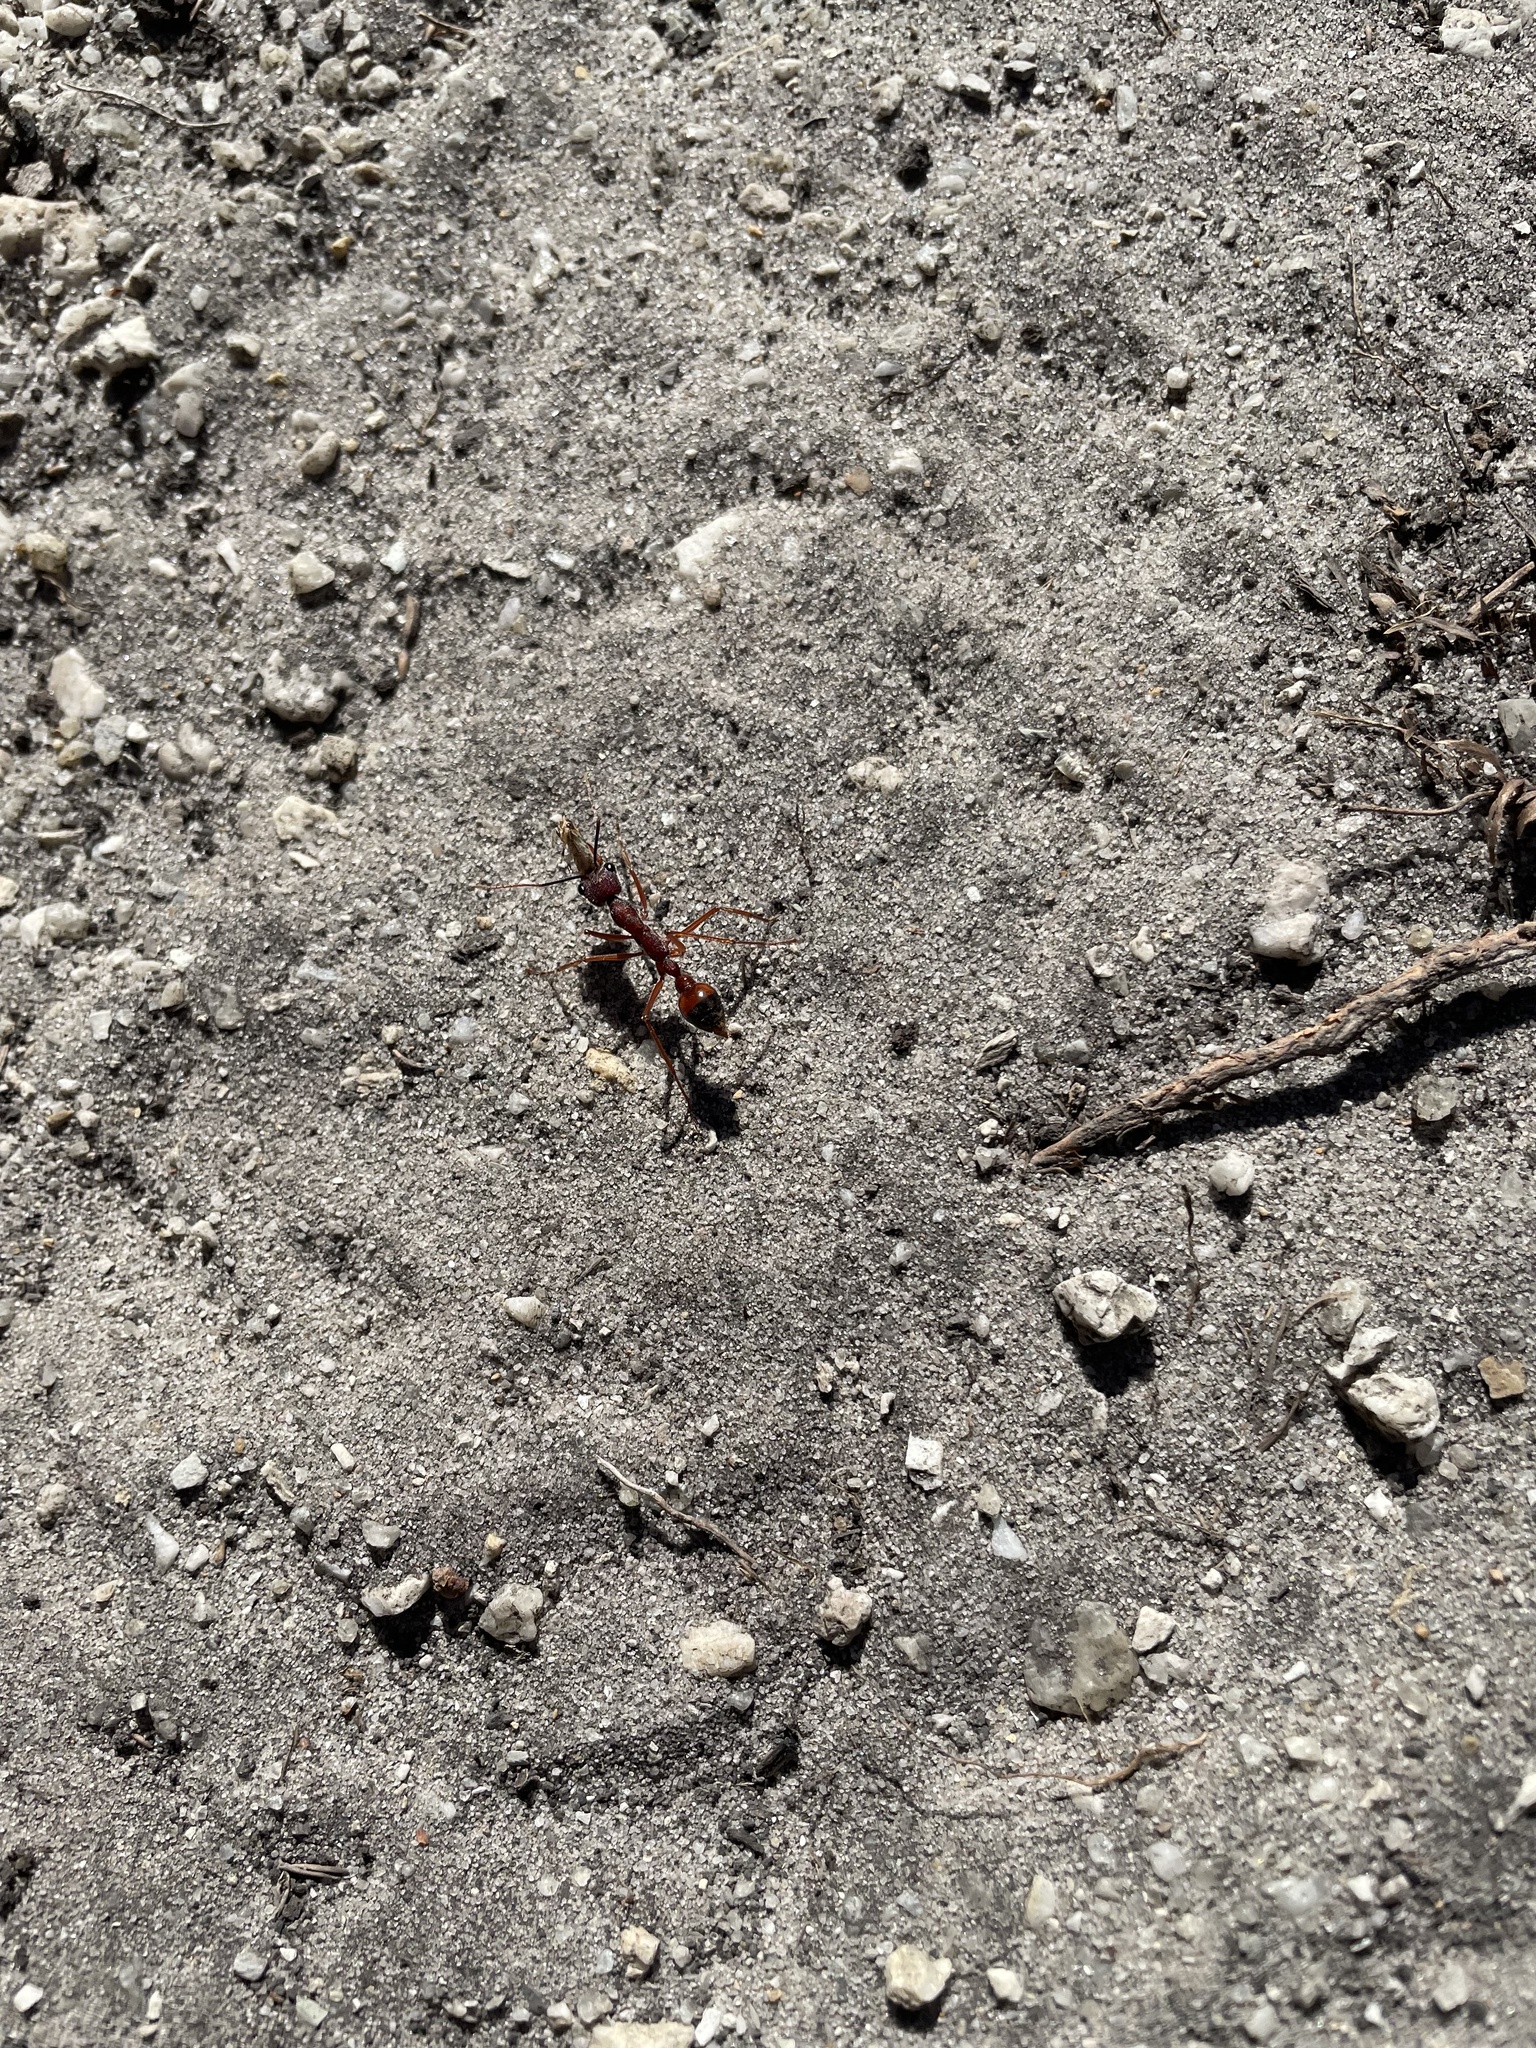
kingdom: Animalia
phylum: Arthropoda
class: Insecta
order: Hymenoptera
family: Formicidae
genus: Myrmecia
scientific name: Myrmecia nigriscapa
